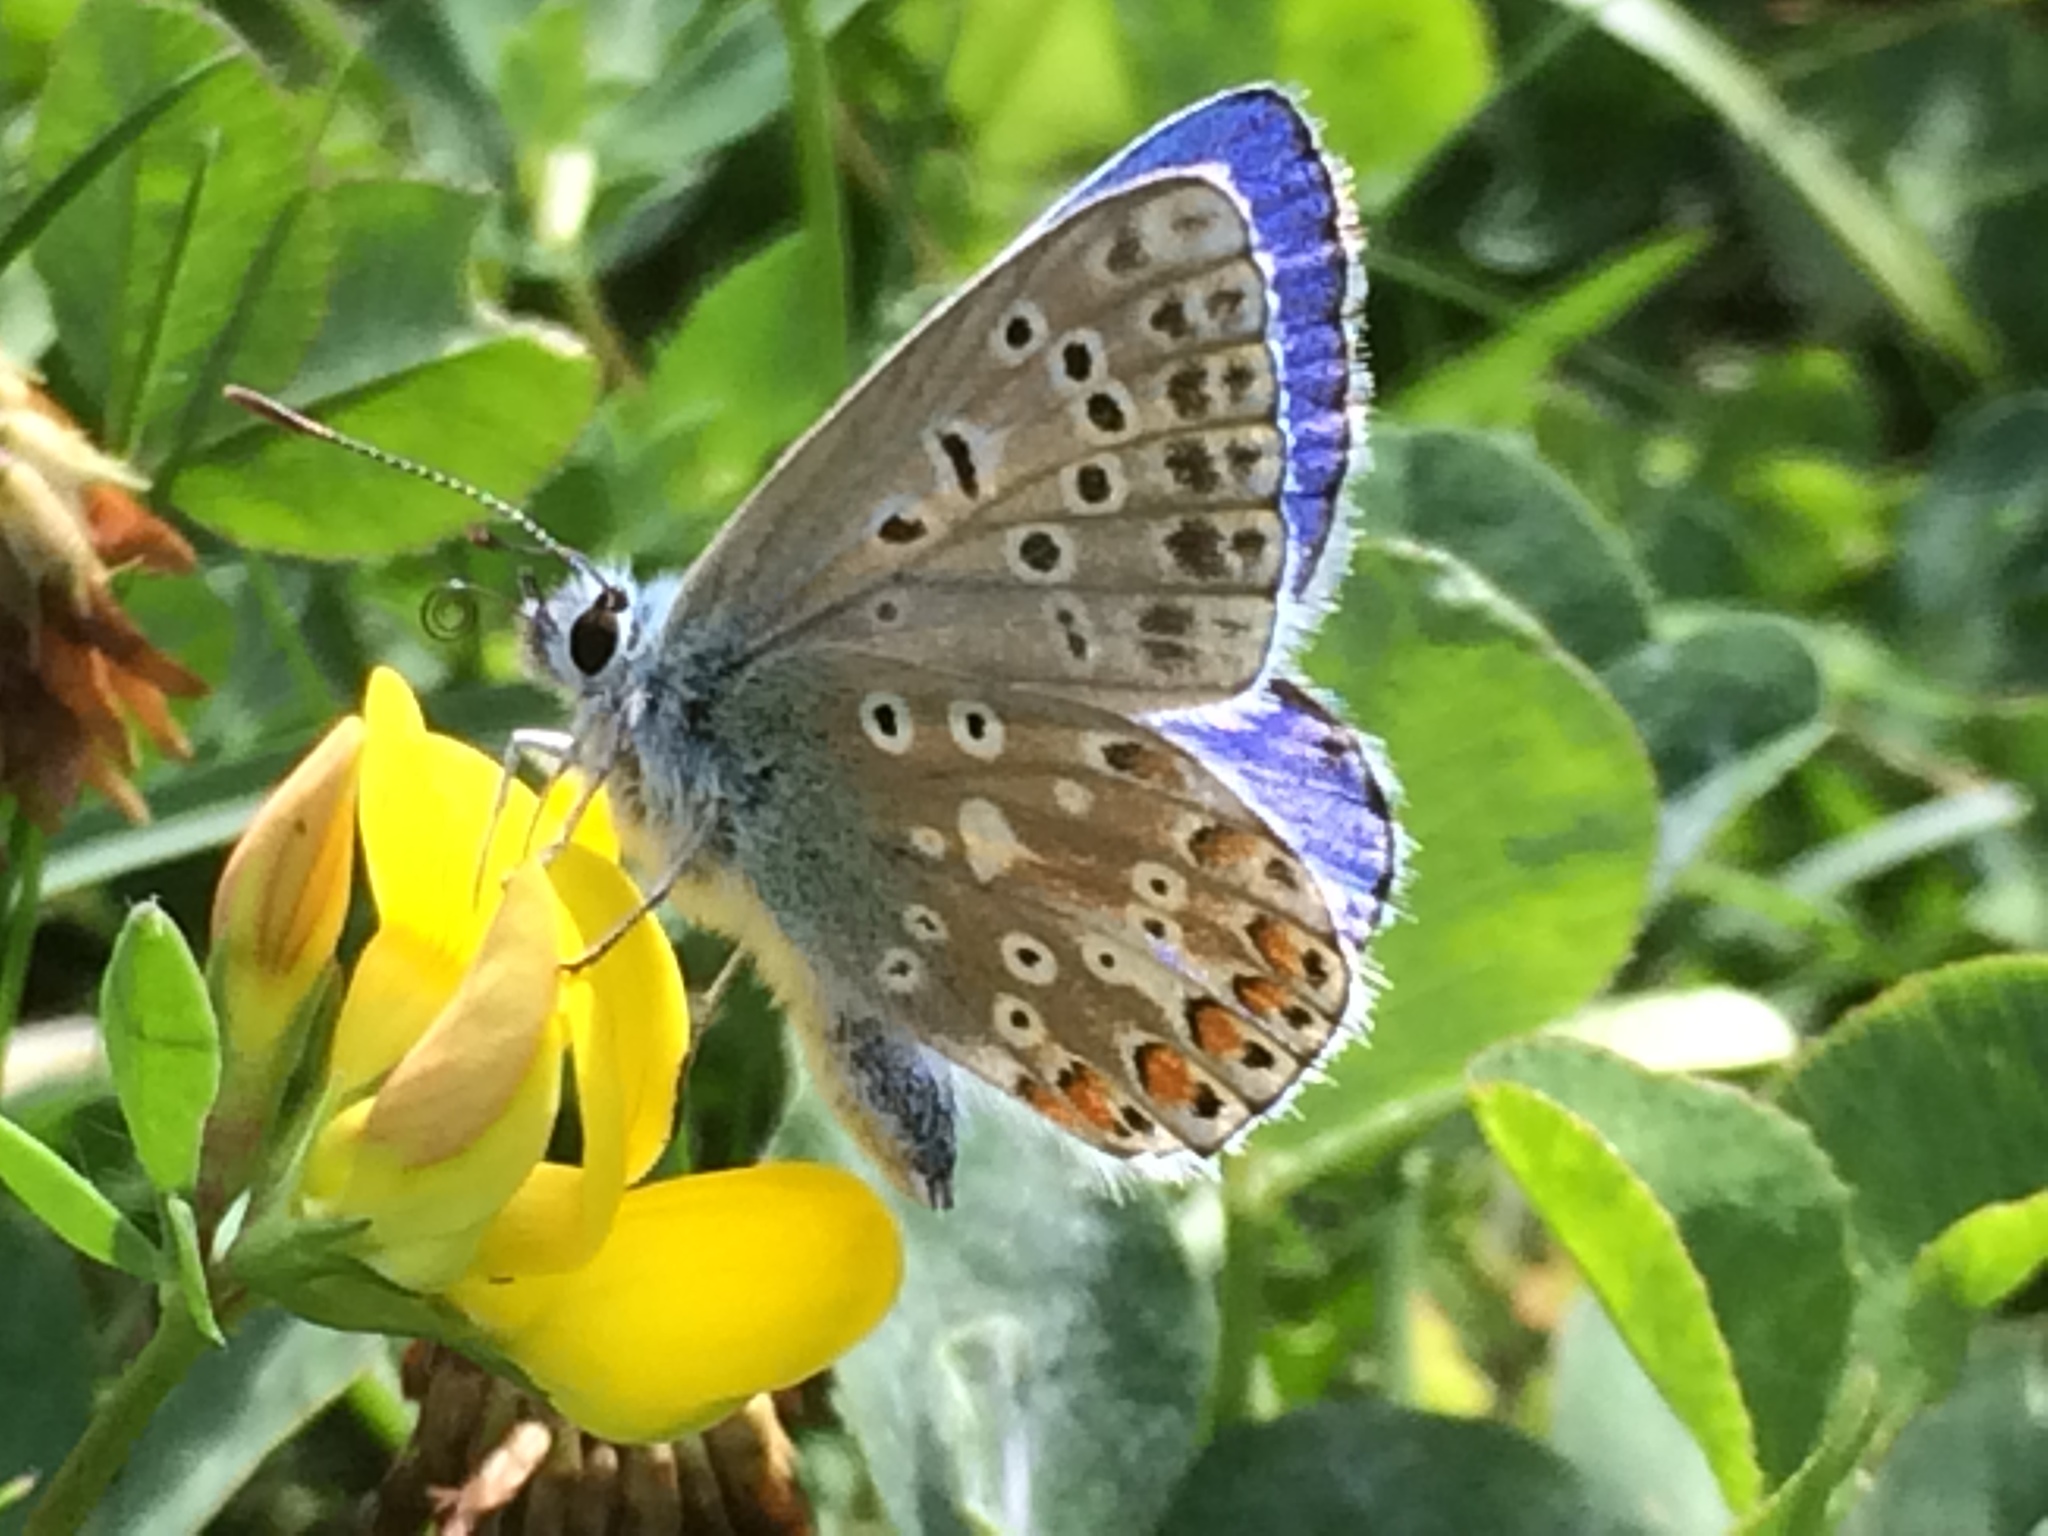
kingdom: Animalia
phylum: Arthropoda
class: Insecta
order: Lepidoptera
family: Lycaenidae
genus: Lysandra
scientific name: Lysandra bellargus
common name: Adonis blue
